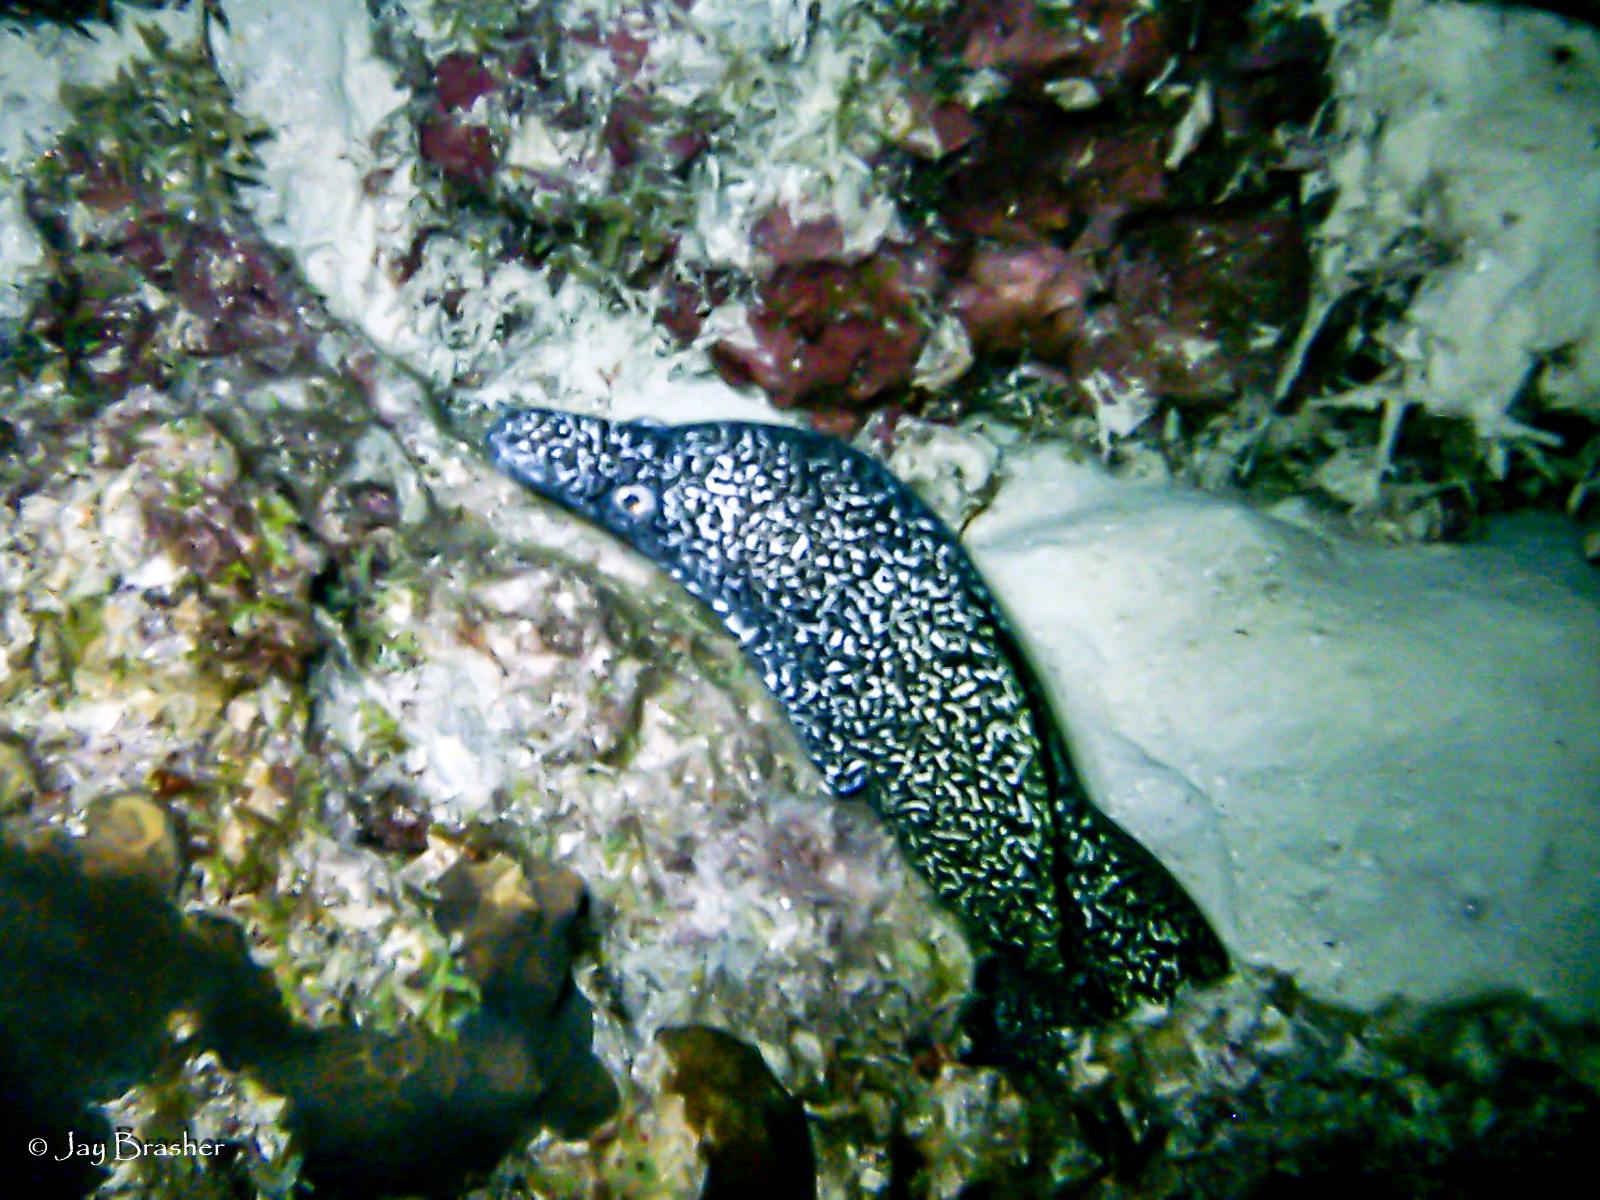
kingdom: Animalia
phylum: Chordata
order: Anguilliformes
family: Muraenidae
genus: Gymnothorax
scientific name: Gymnothorax moringa
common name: Spotted moray
